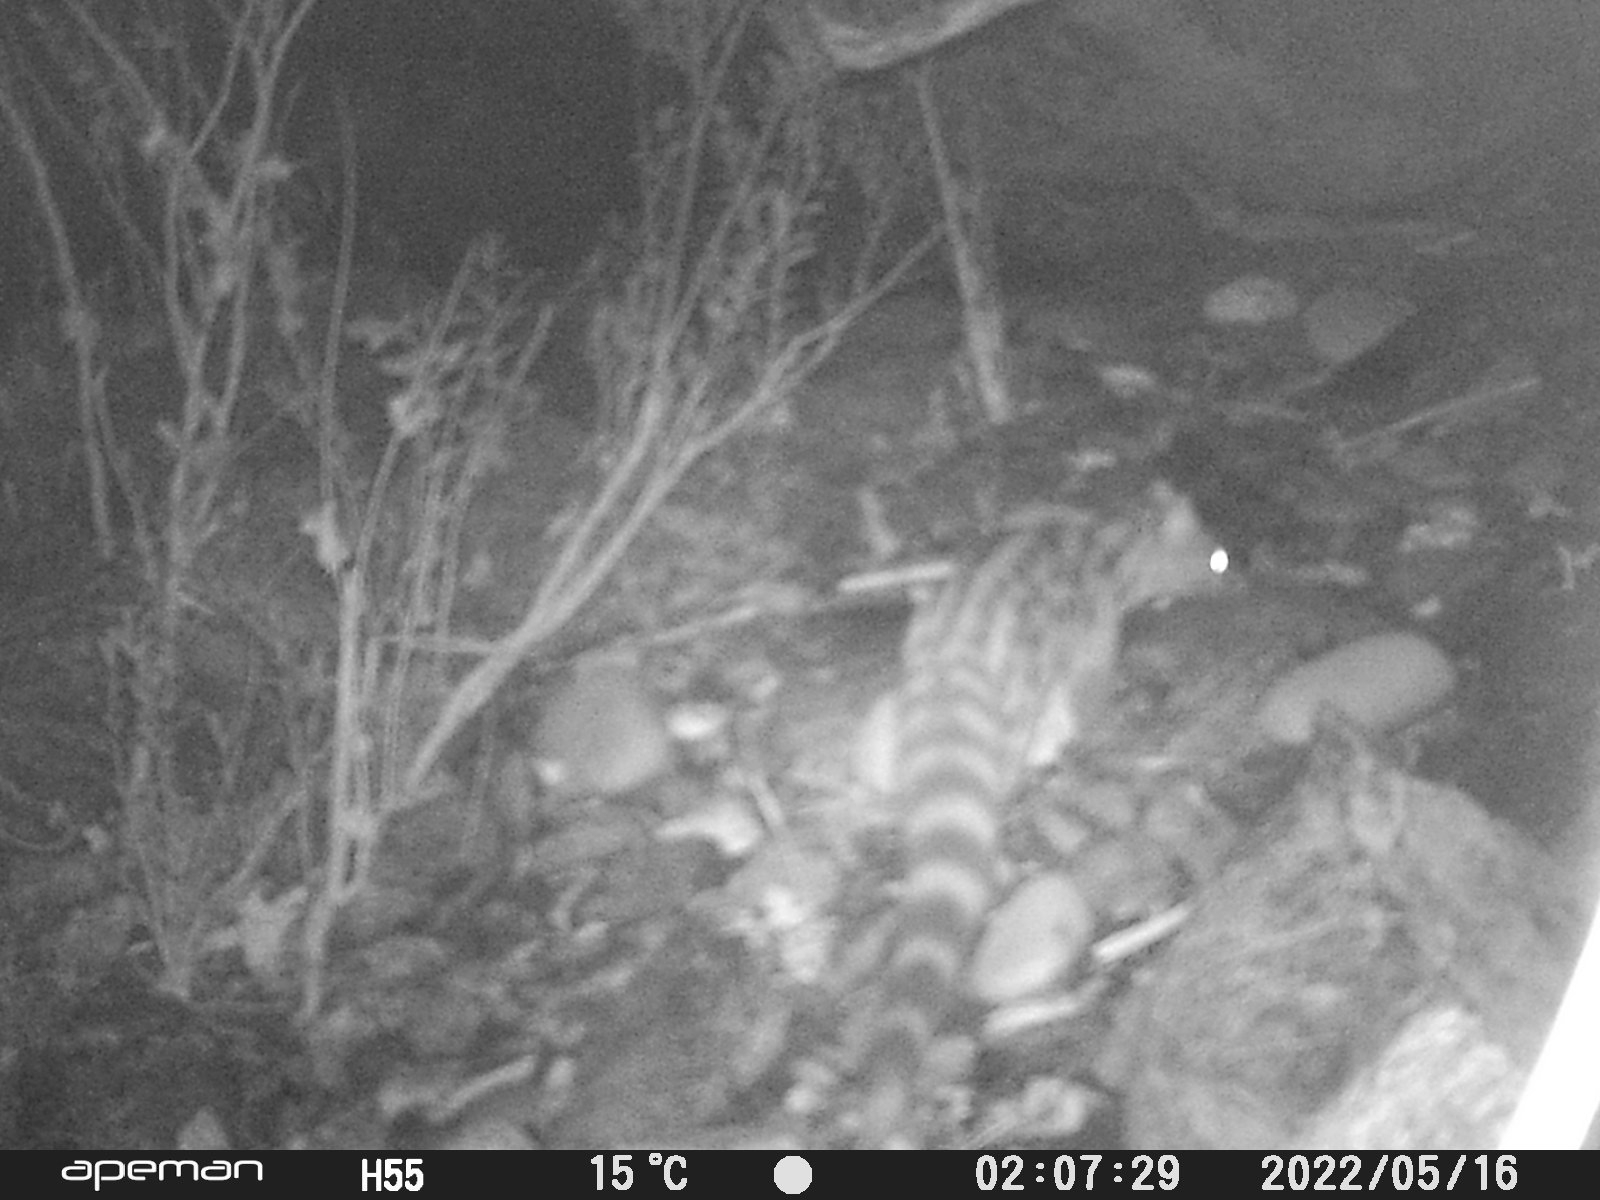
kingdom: Animalia
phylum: Chordata
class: Mammalia
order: Carnivora
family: Viverridae
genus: Genetta
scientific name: Genetta genetta
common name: Common genet
